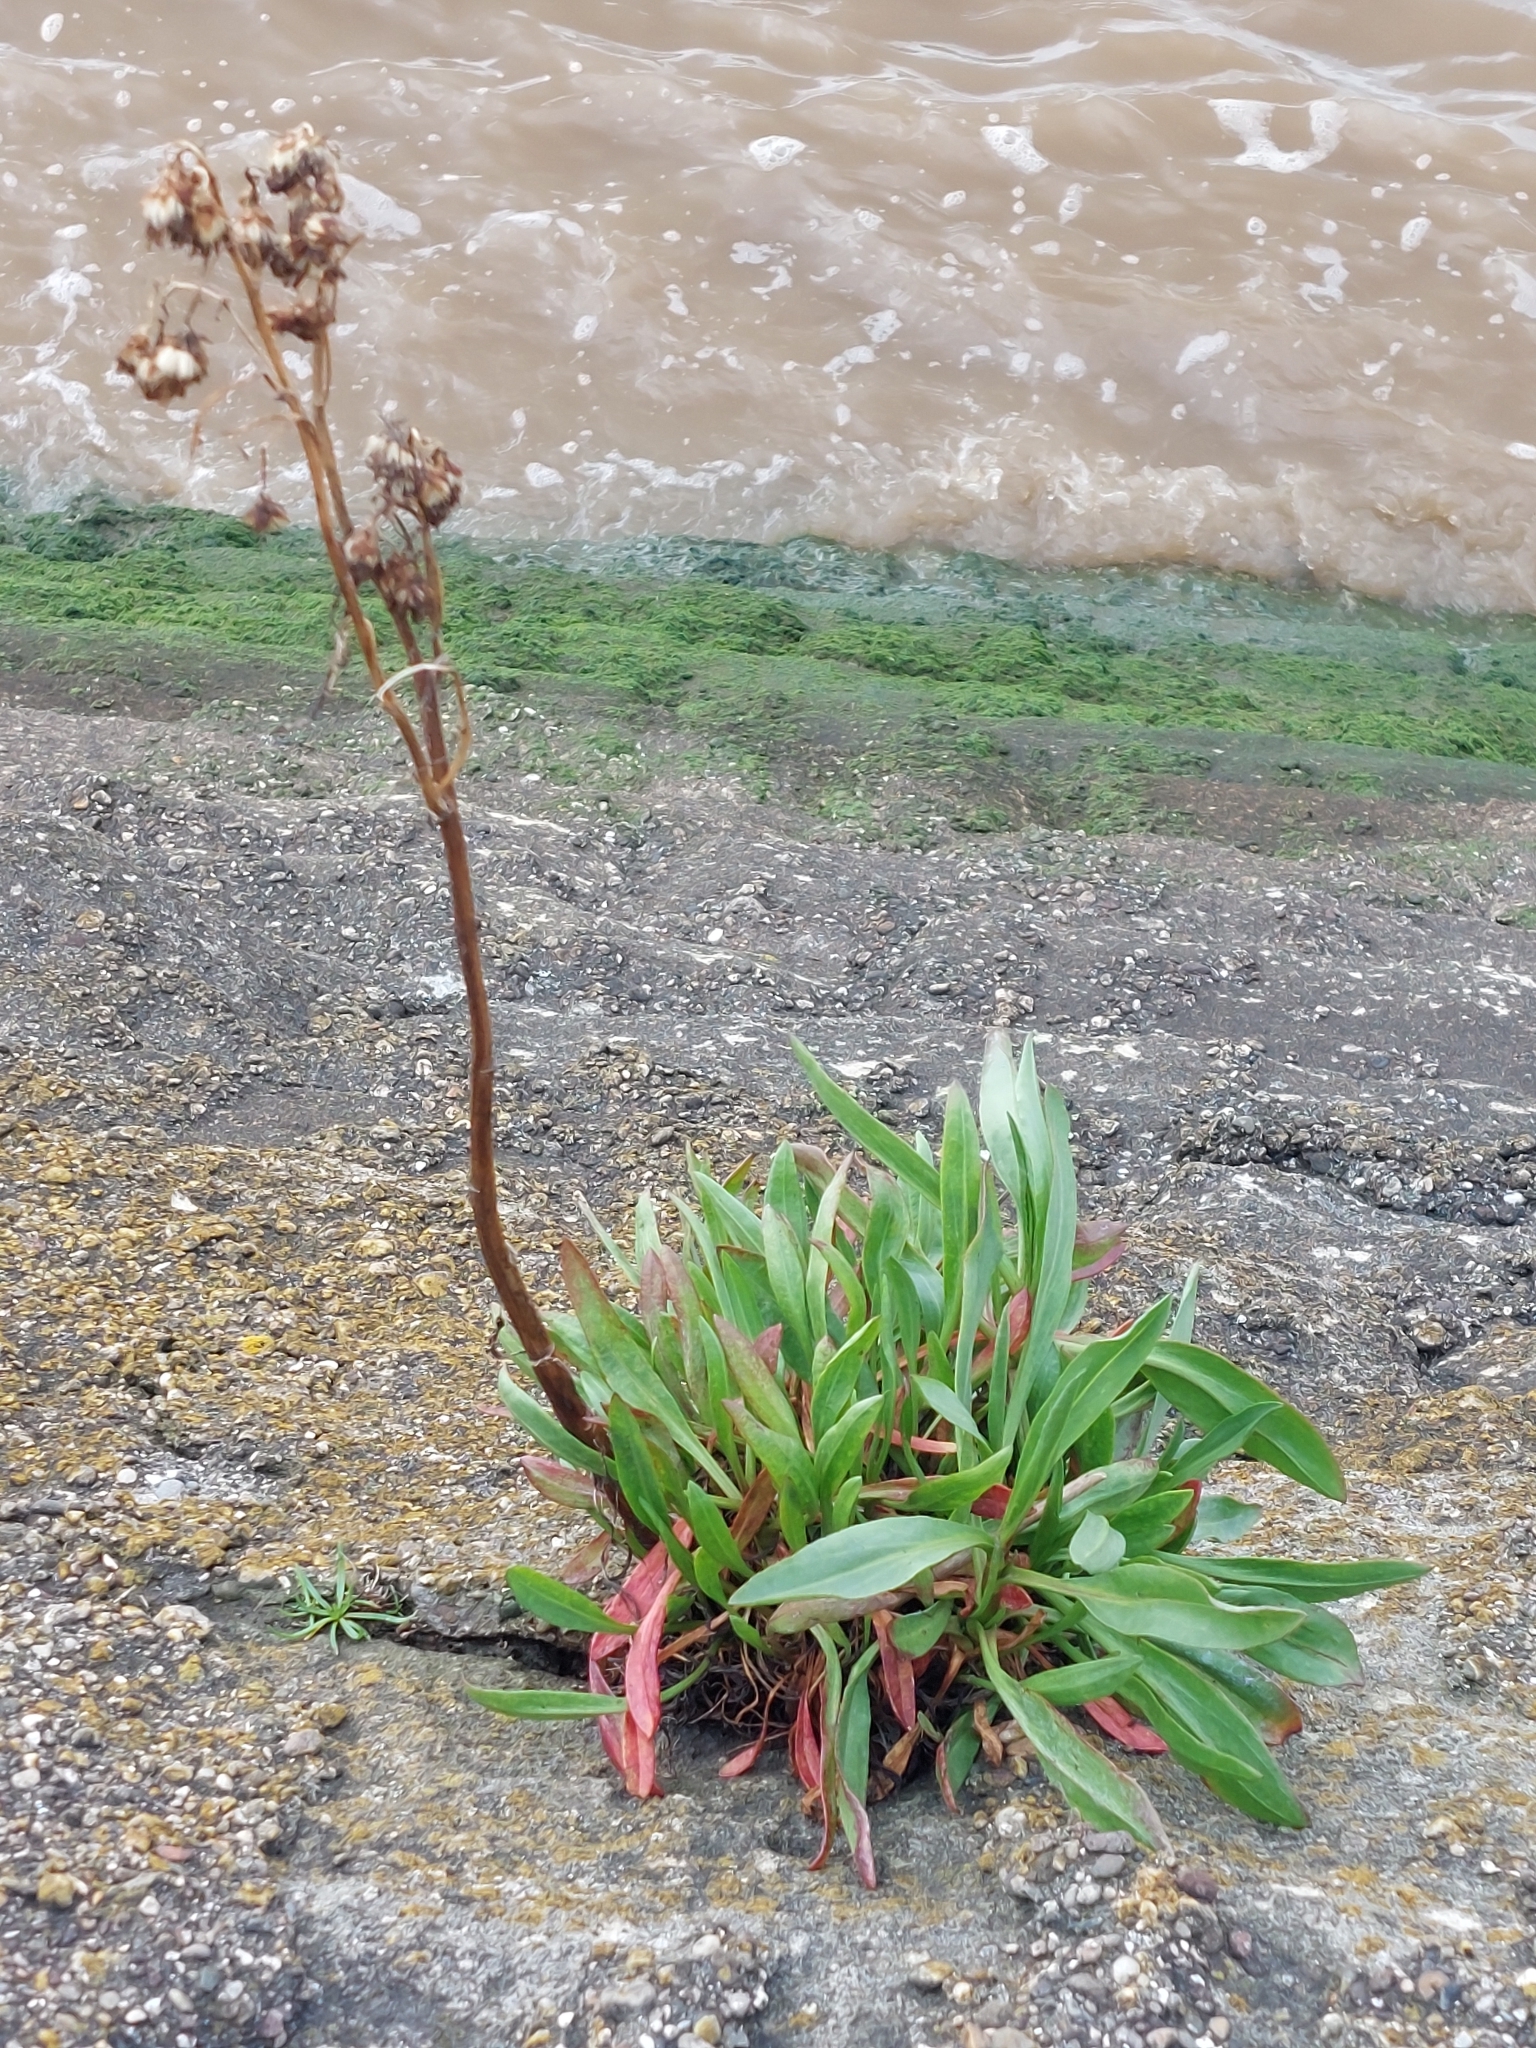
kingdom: Plantae
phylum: Tracheophyta
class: Magnoliopsida
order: Asterales
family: Asteraceae
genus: Tripolium
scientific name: Tripolium pannonicum
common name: Sea aster
